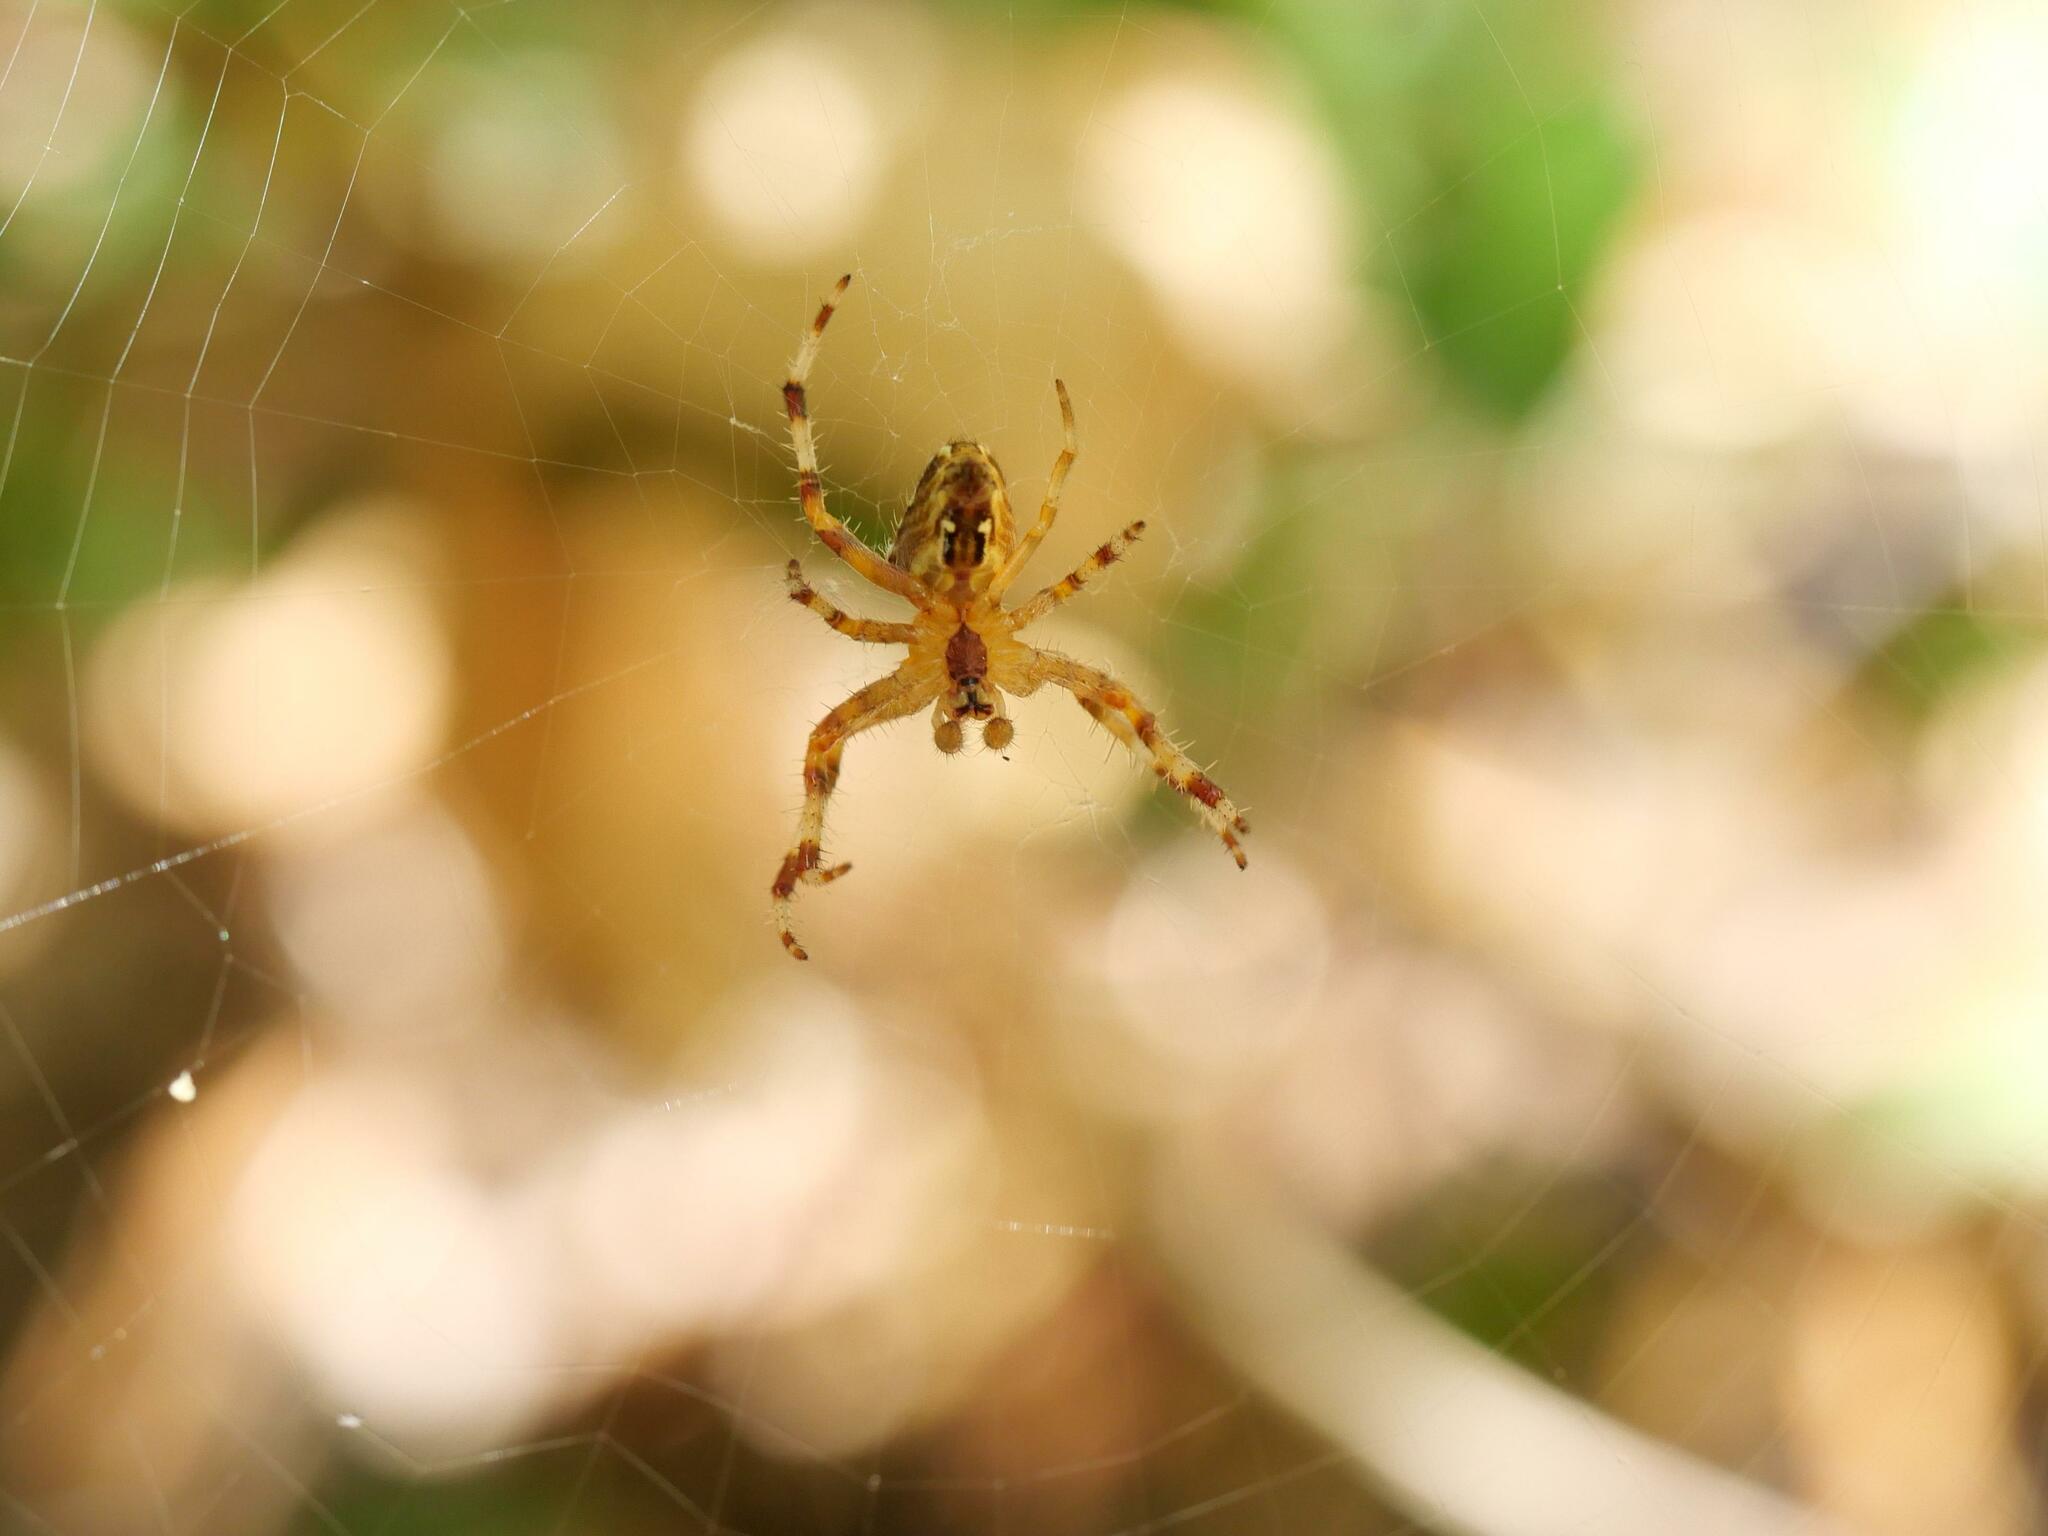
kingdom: Animalia
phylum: Arthropoda
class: Arachnida
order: Araneae
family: Araneidae
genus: Araneus
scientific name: Araneus diadematus
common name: Cross orbweaver
